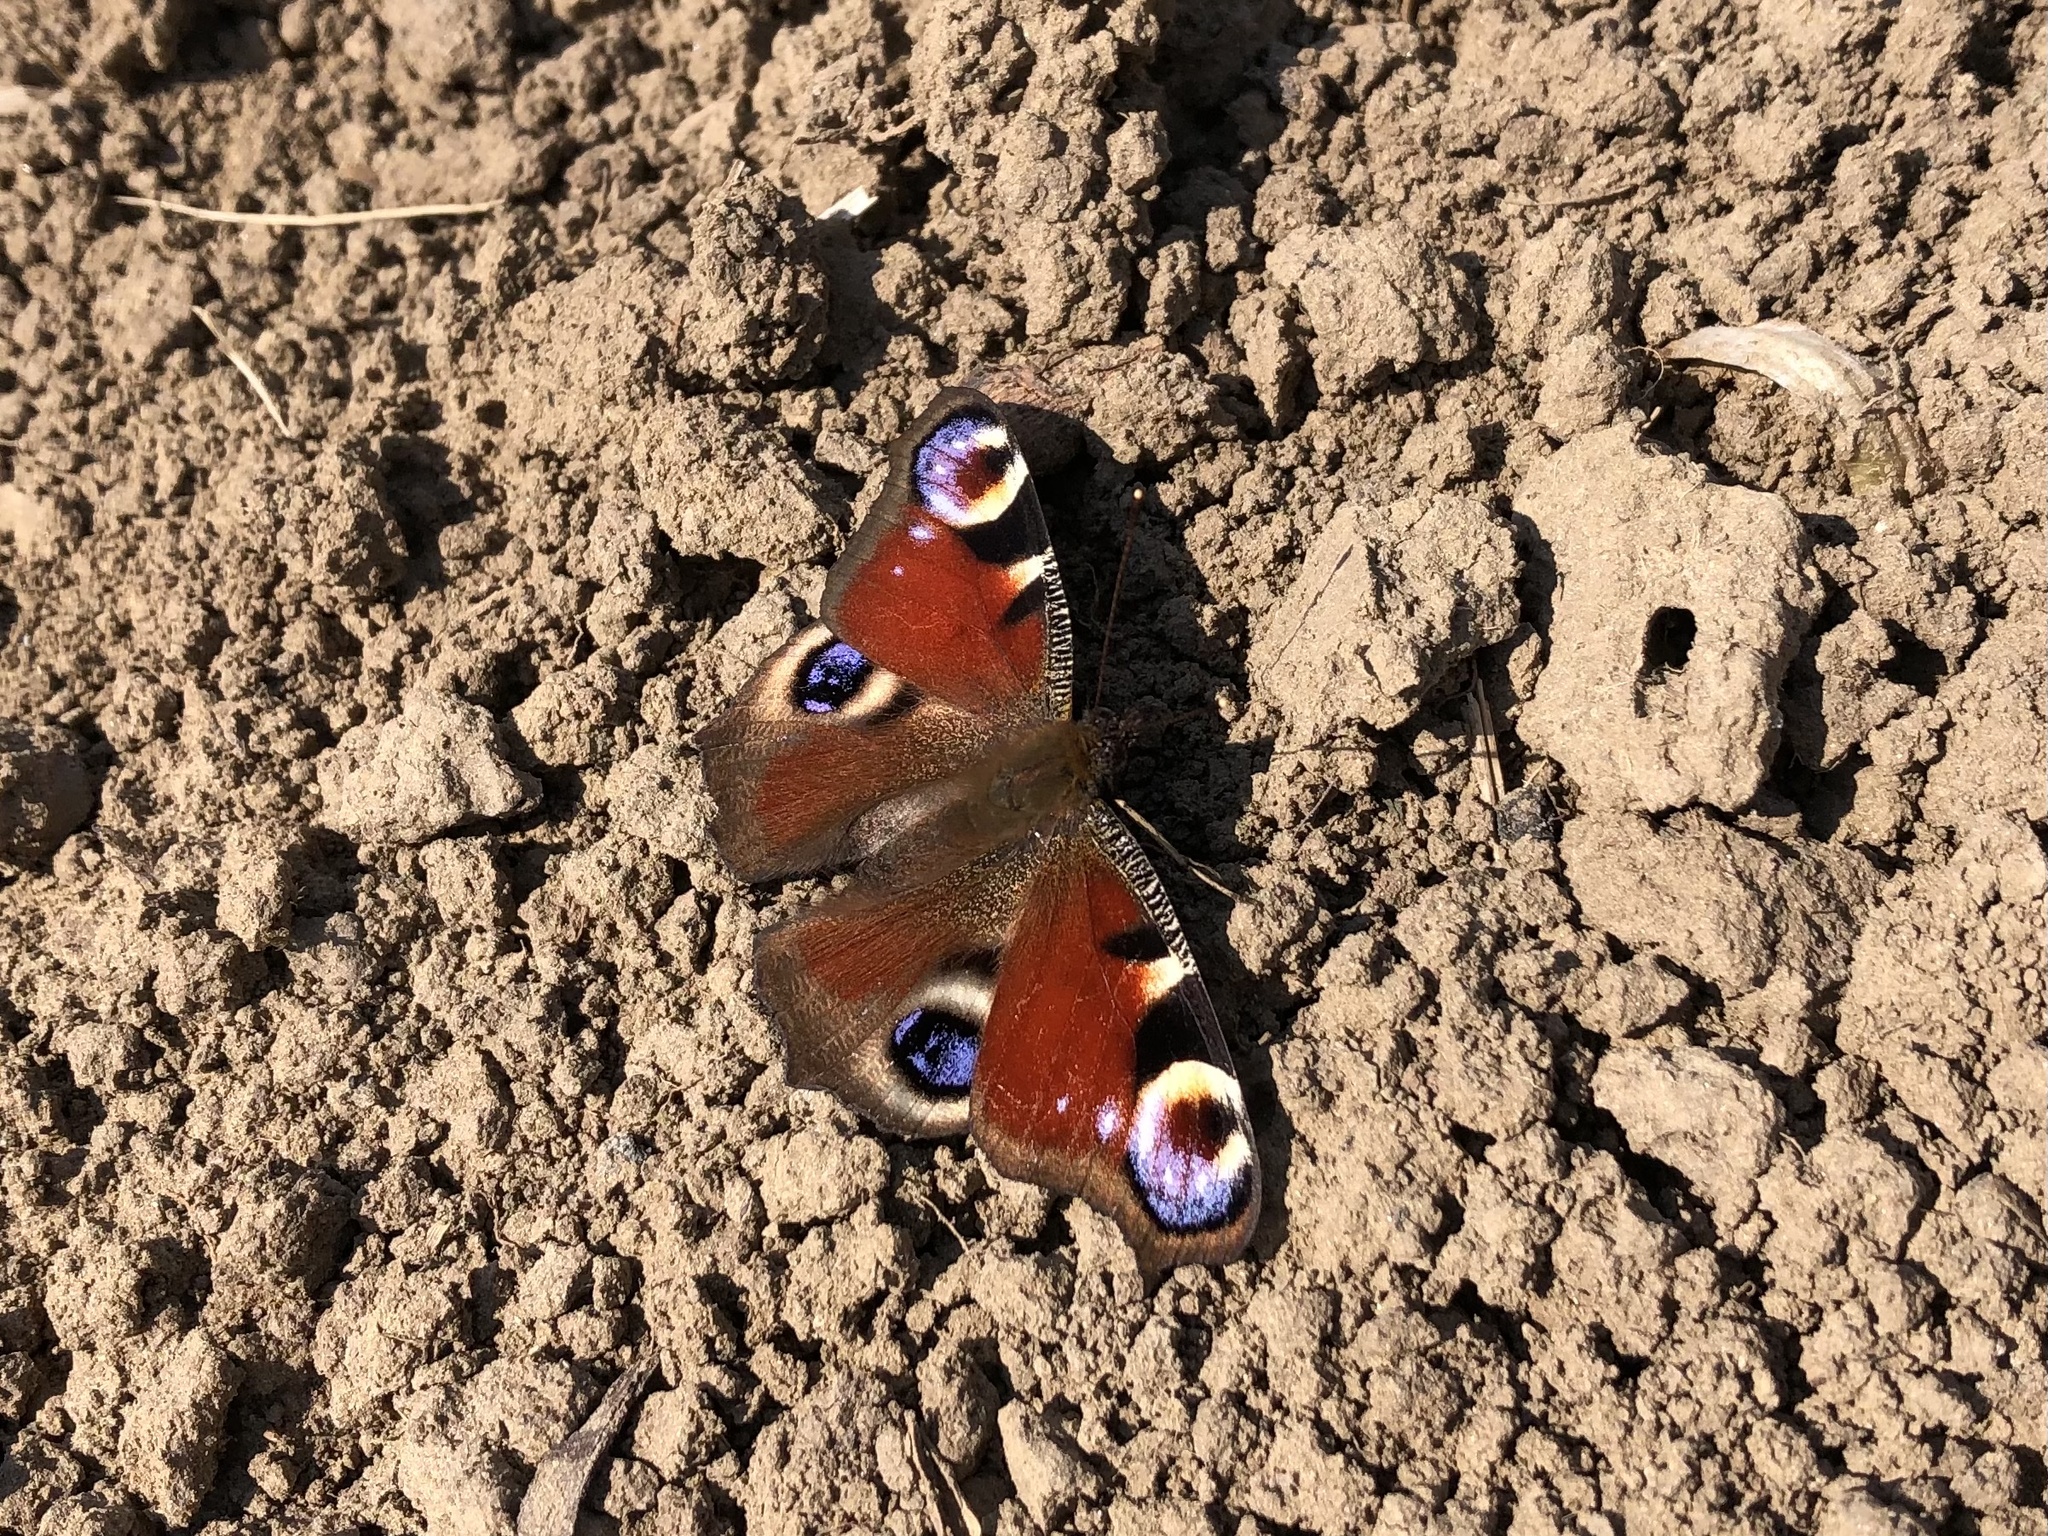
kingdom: Animalia
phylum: Arthropoda
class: Insecta
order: Lepidoptera
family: Nymphalidae
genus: Aglais
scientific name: Aglais io
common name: Peacock
